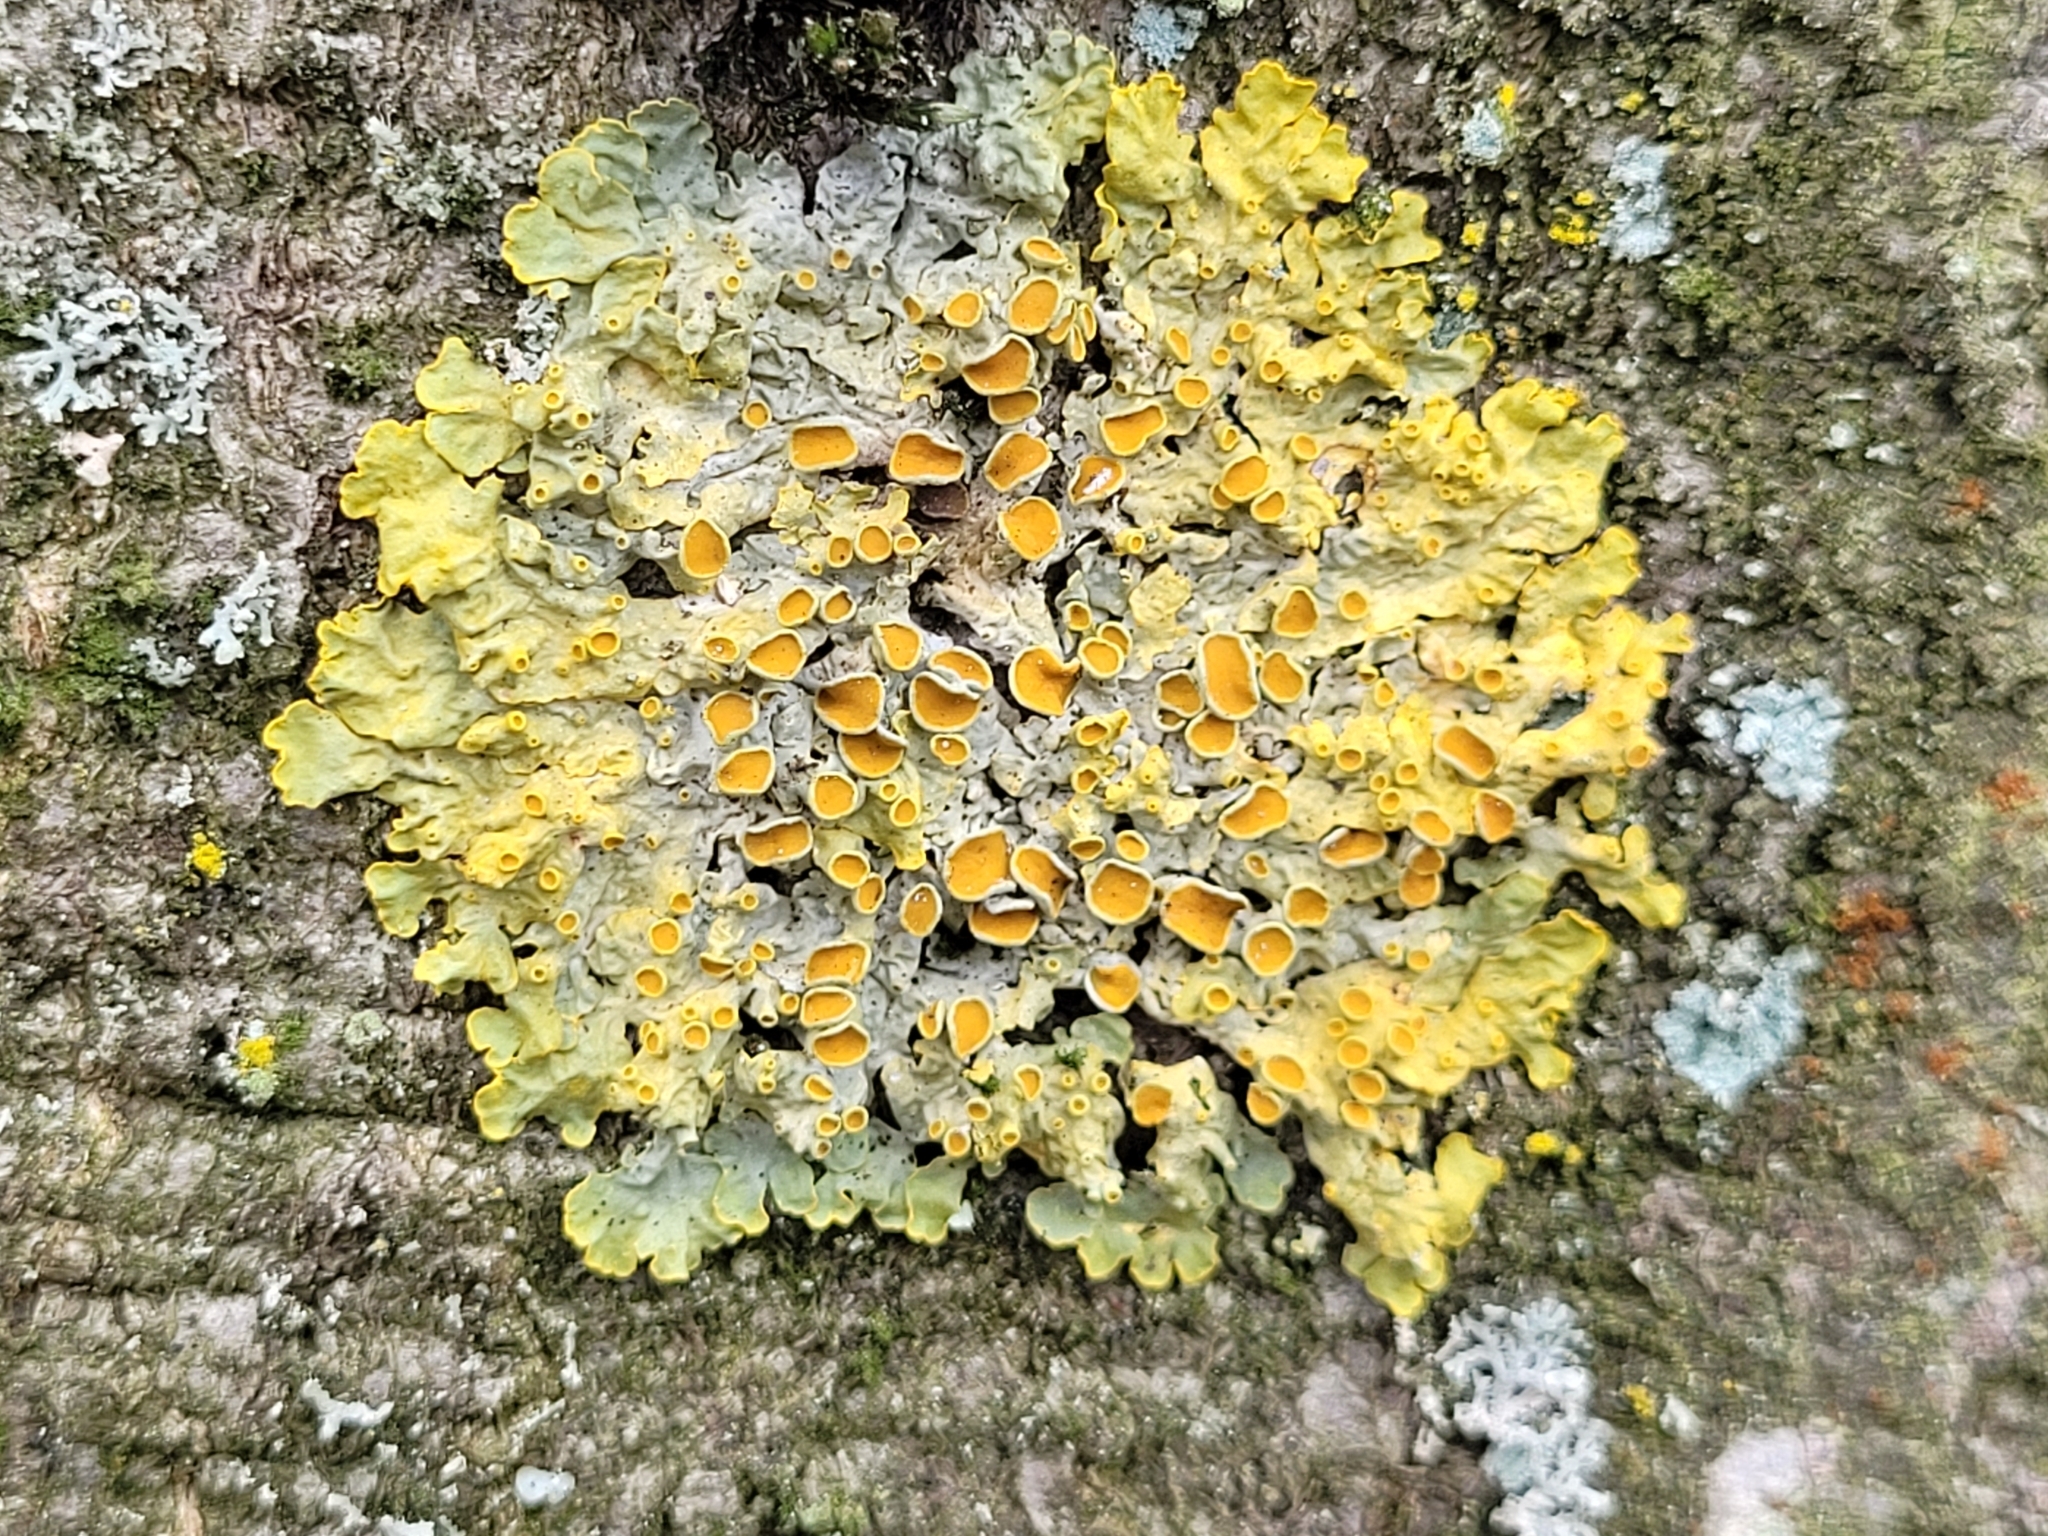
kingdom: Fungi
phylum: Ascomycota
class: Lecanoromycetes
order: Teloschistales
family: Teloschistaceae
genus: Xanthoria
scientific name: Xanthoria parietina
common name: Common orange lichen
